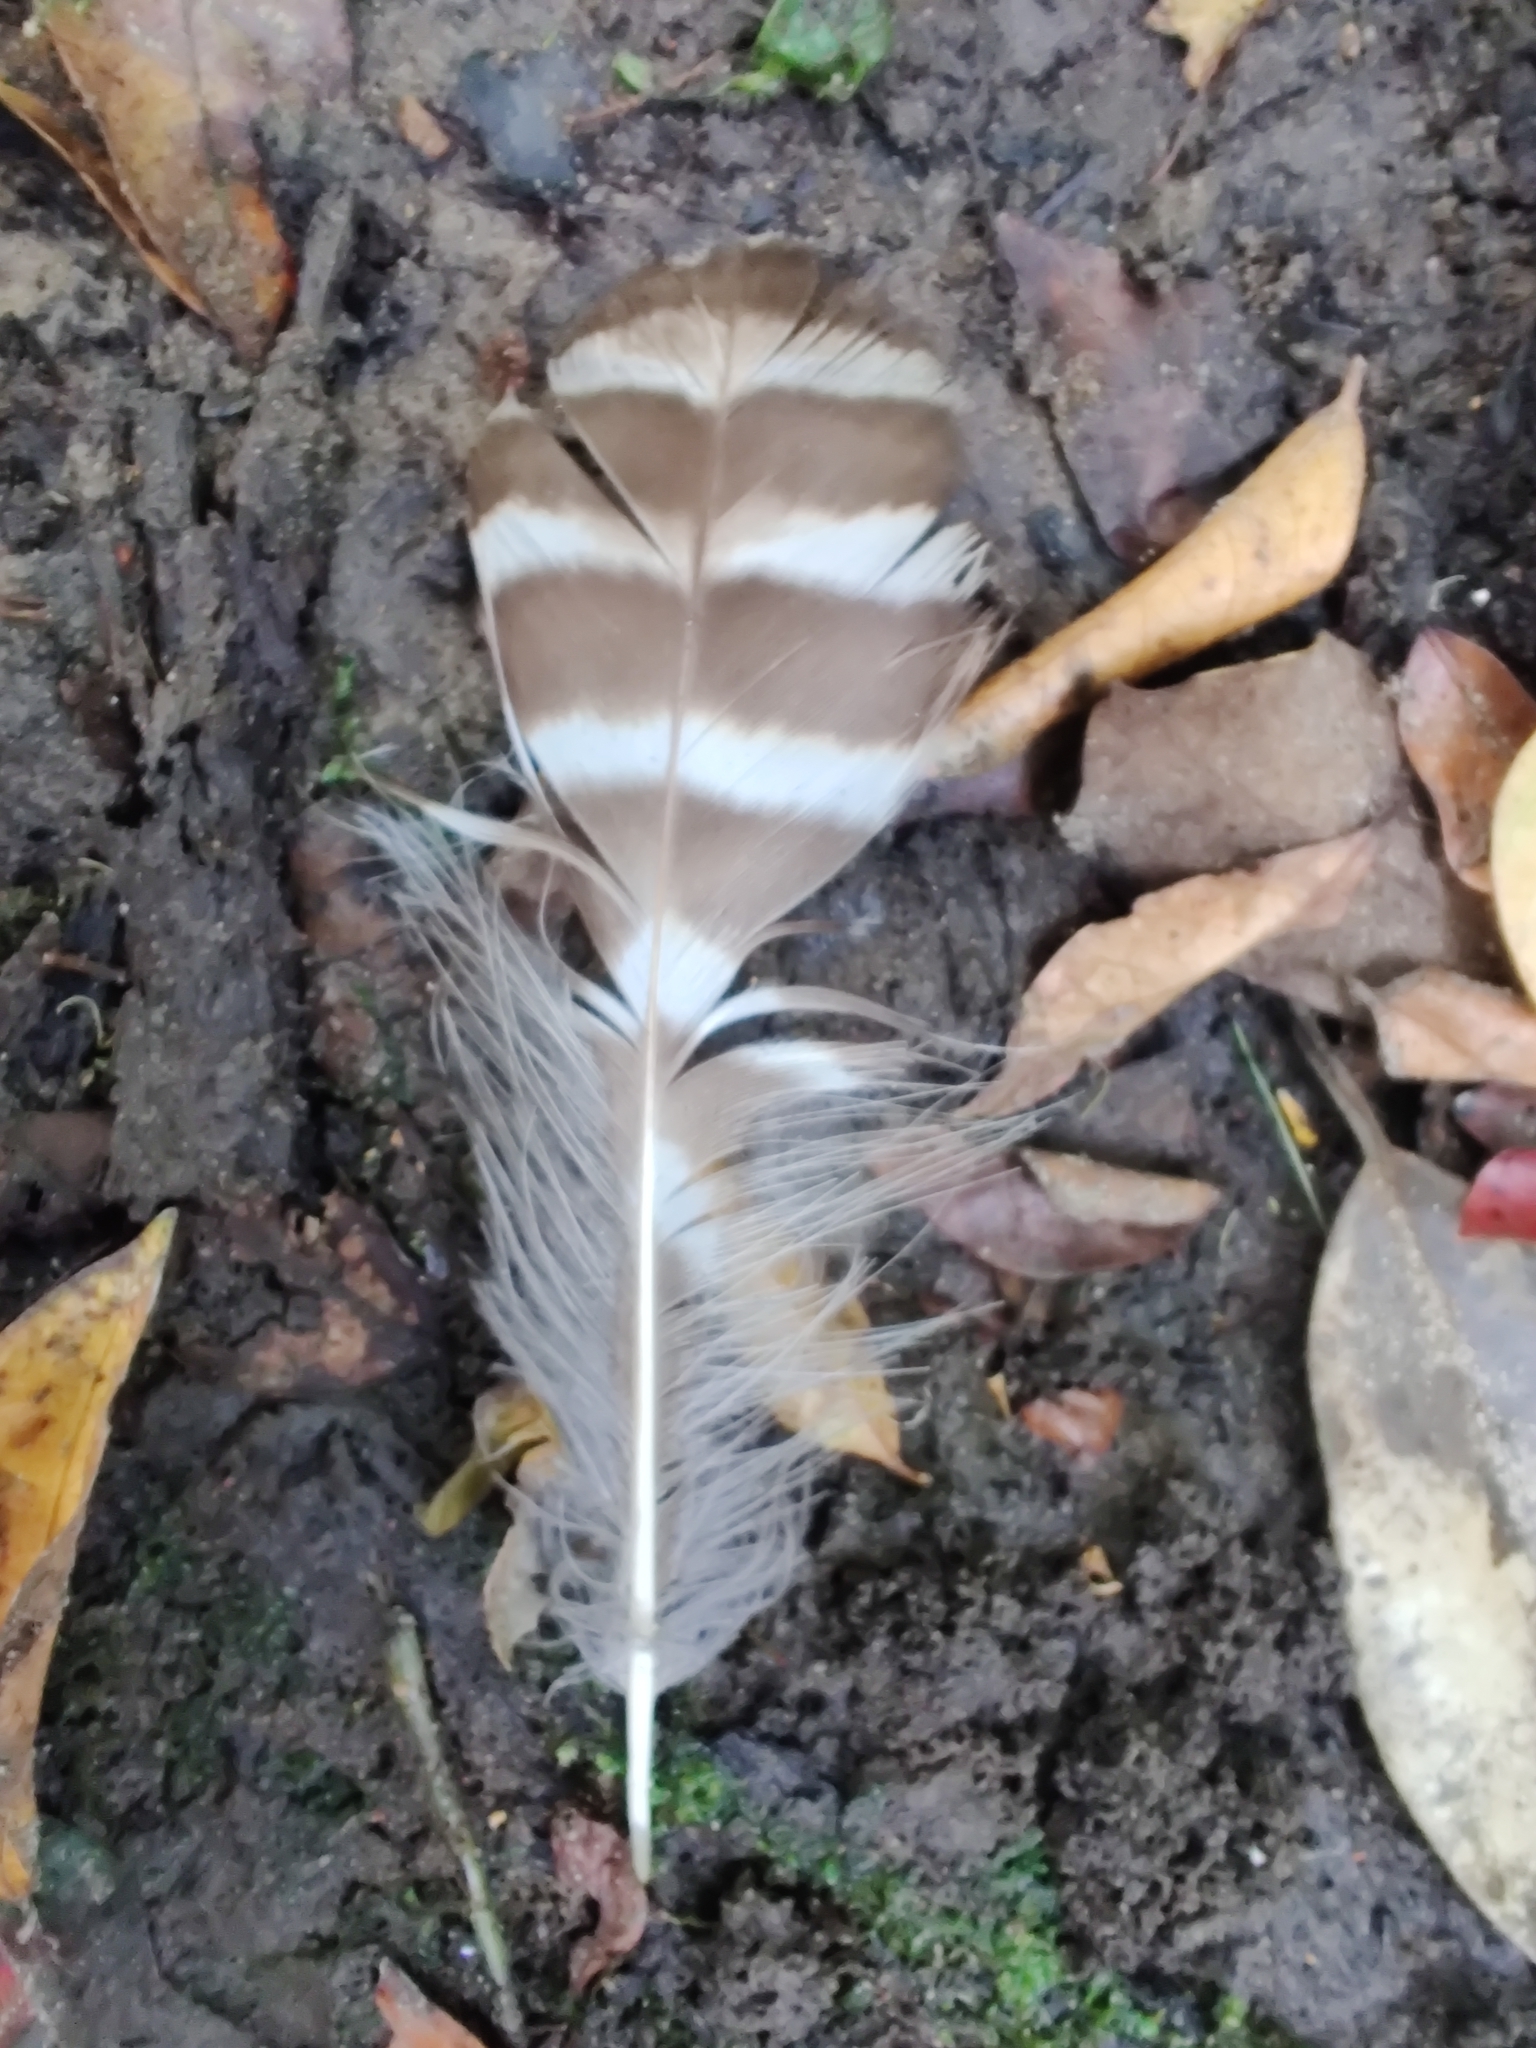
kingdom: Animalia
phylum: Chordata
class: Aves
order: Strigiformes
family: Strigidae
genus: Ninox
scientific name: Ninox strenua
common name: Powerful owl
